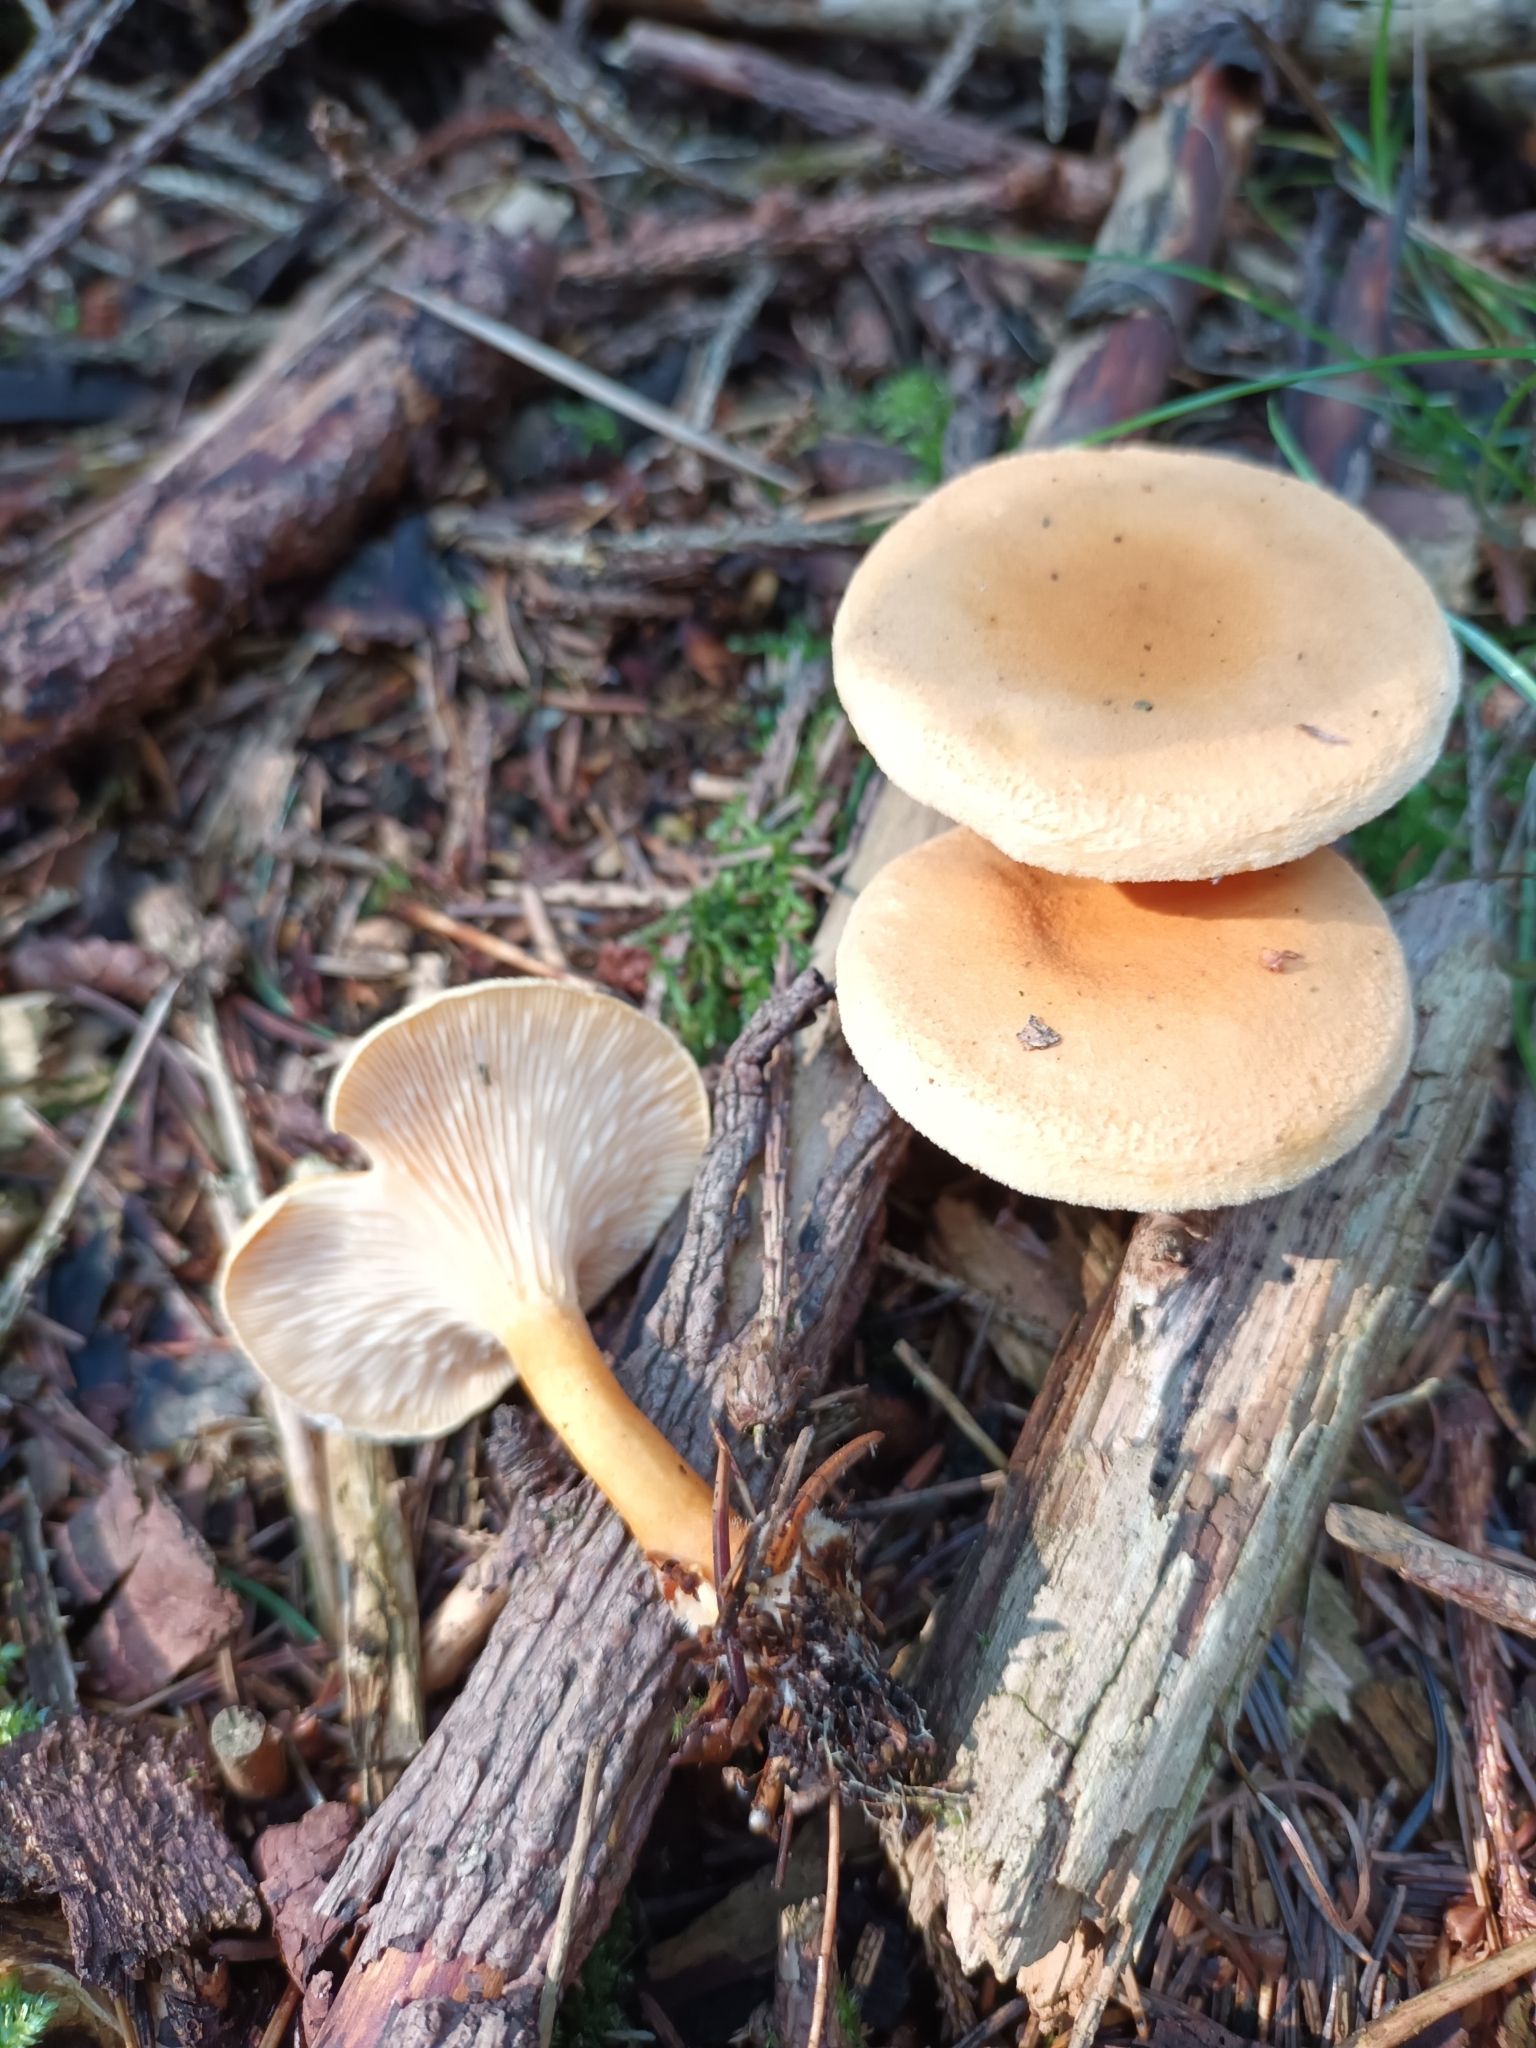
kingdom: Fungi
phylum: Basidiomycota
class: Agaricomycetes
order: Boletales
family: Hygrophoropsidaceae
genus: Hygrophoropsis
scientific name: Hygrophoropsis aurantiaca
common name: False chanterelle
